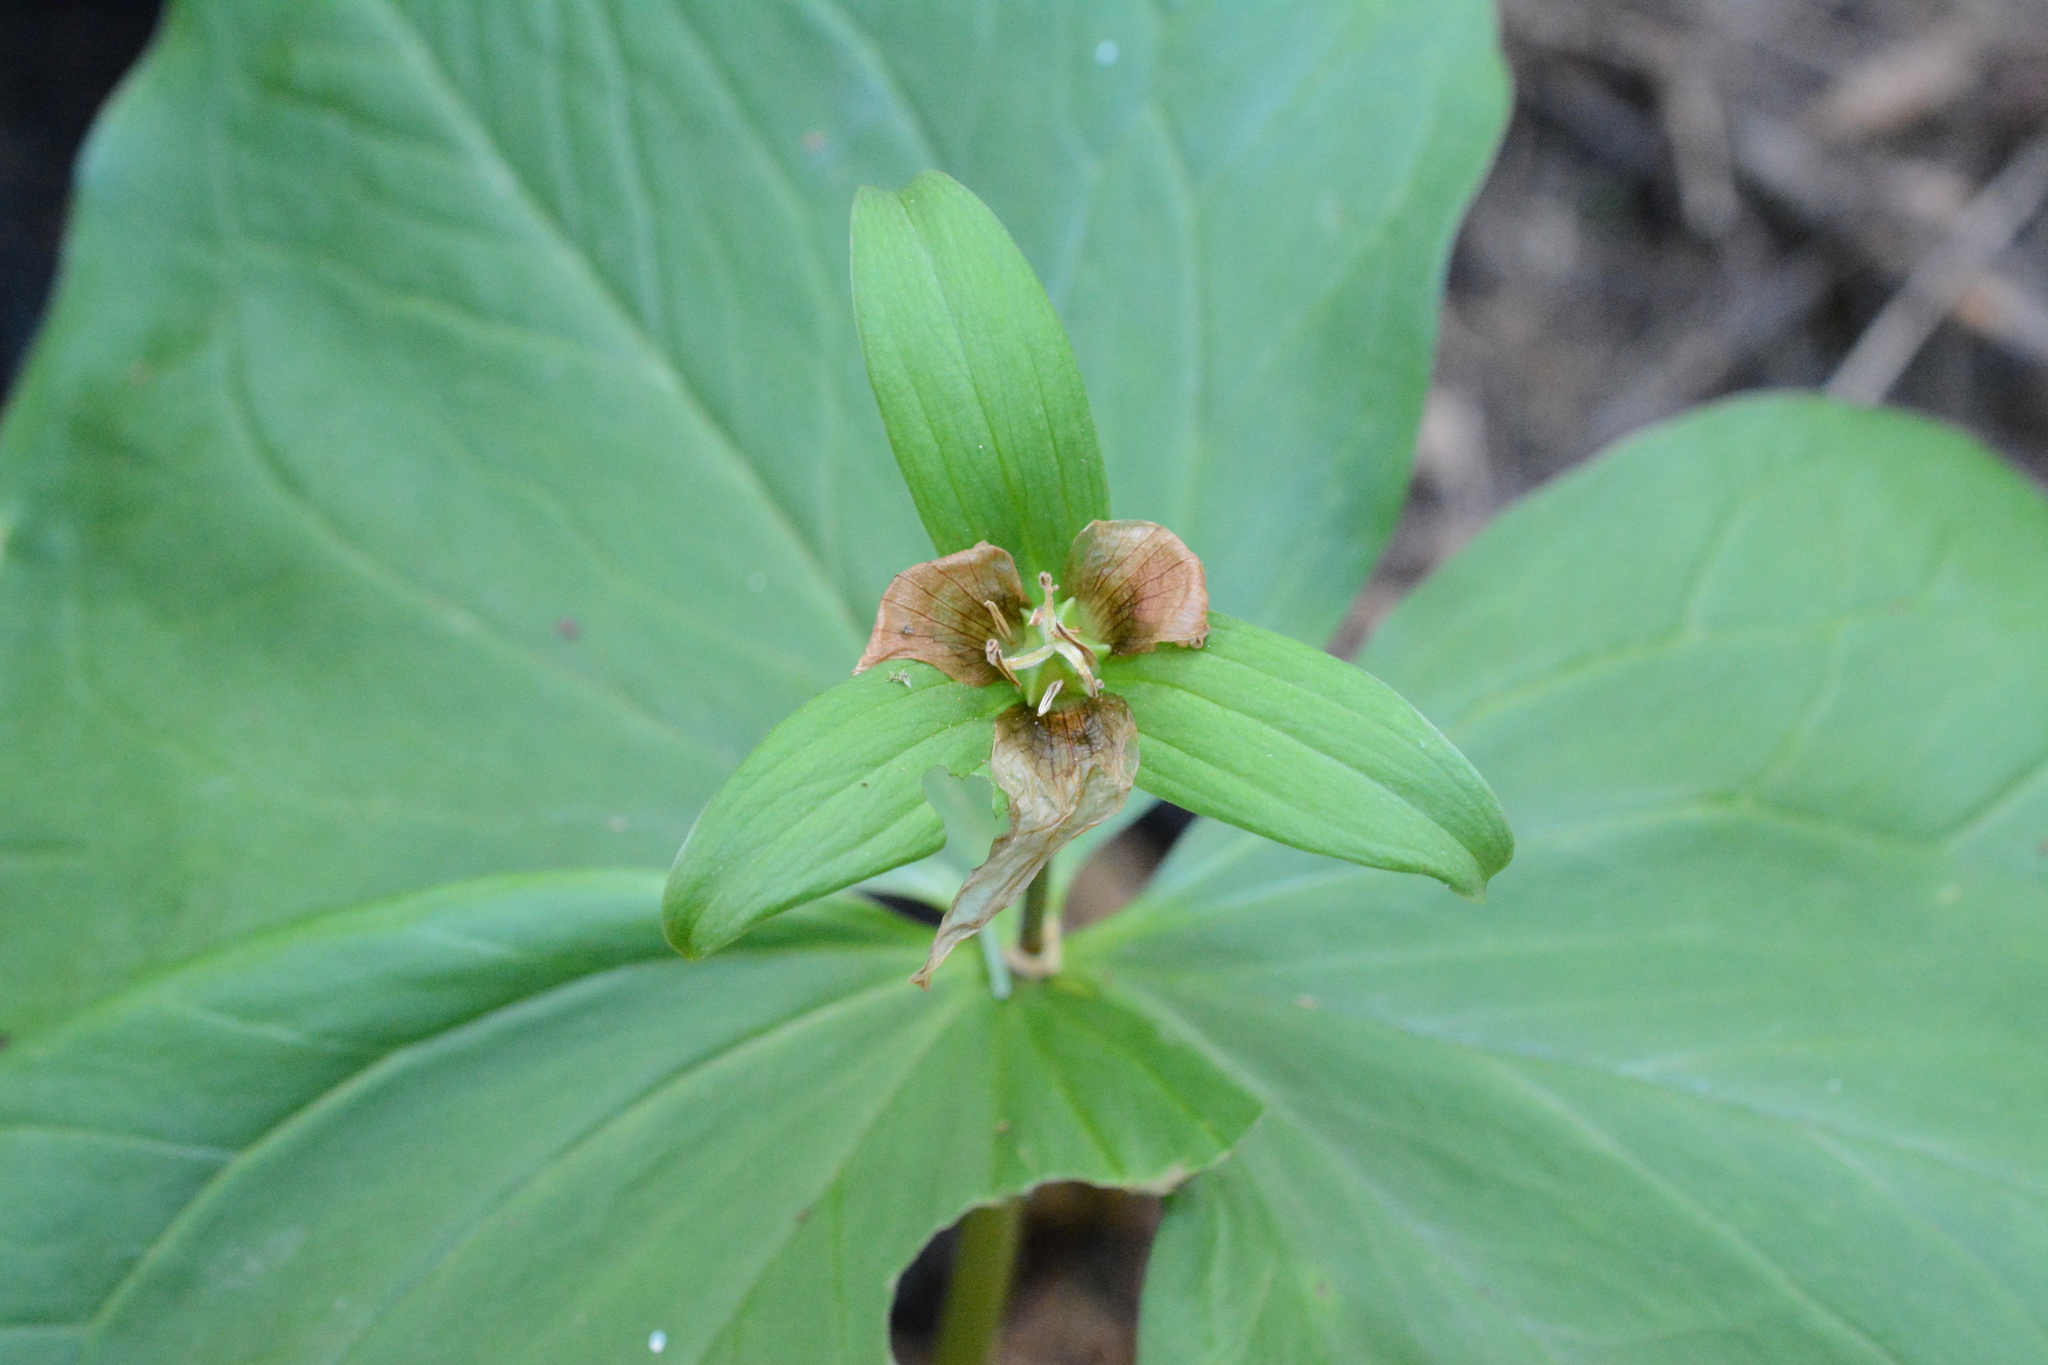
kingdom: Plantae
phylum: Tracheophyta
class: Liliopsida
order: Liliales
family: Melanthiaceae
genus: Trillium
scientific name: Trillium ovatum
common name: Pacific trillium
